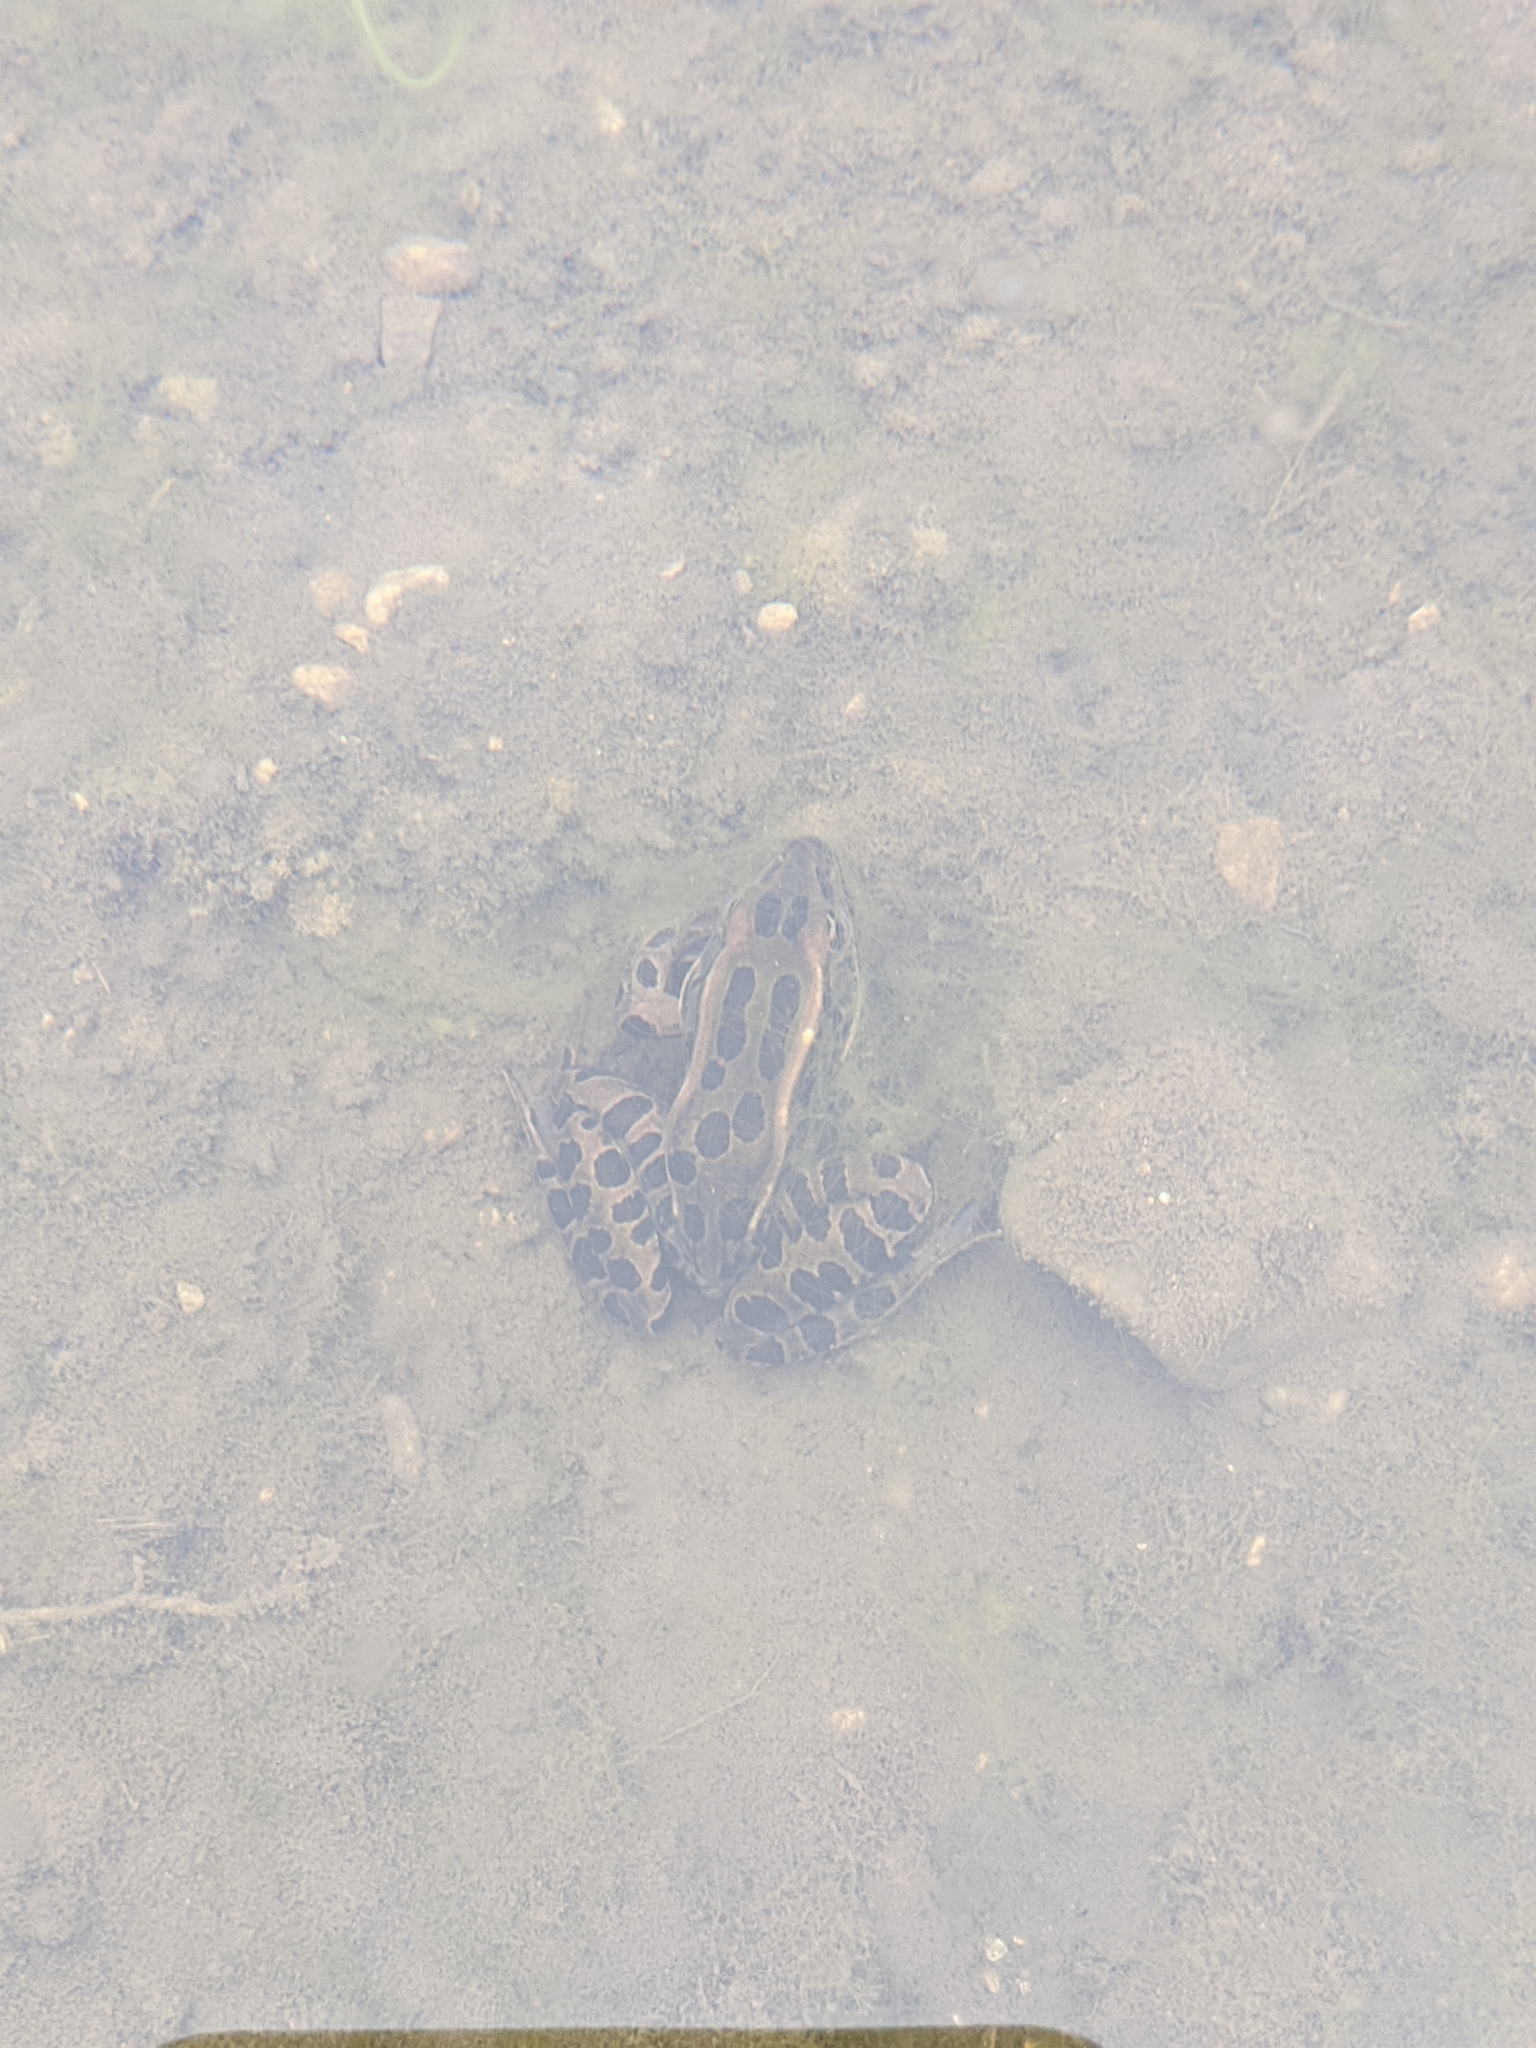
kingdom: Animalia
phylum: Chordata
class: Amphibia
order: Anura
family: Ranidae
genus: Lithobates
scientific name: Lithobates pipiens
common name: Northern leopard frog
